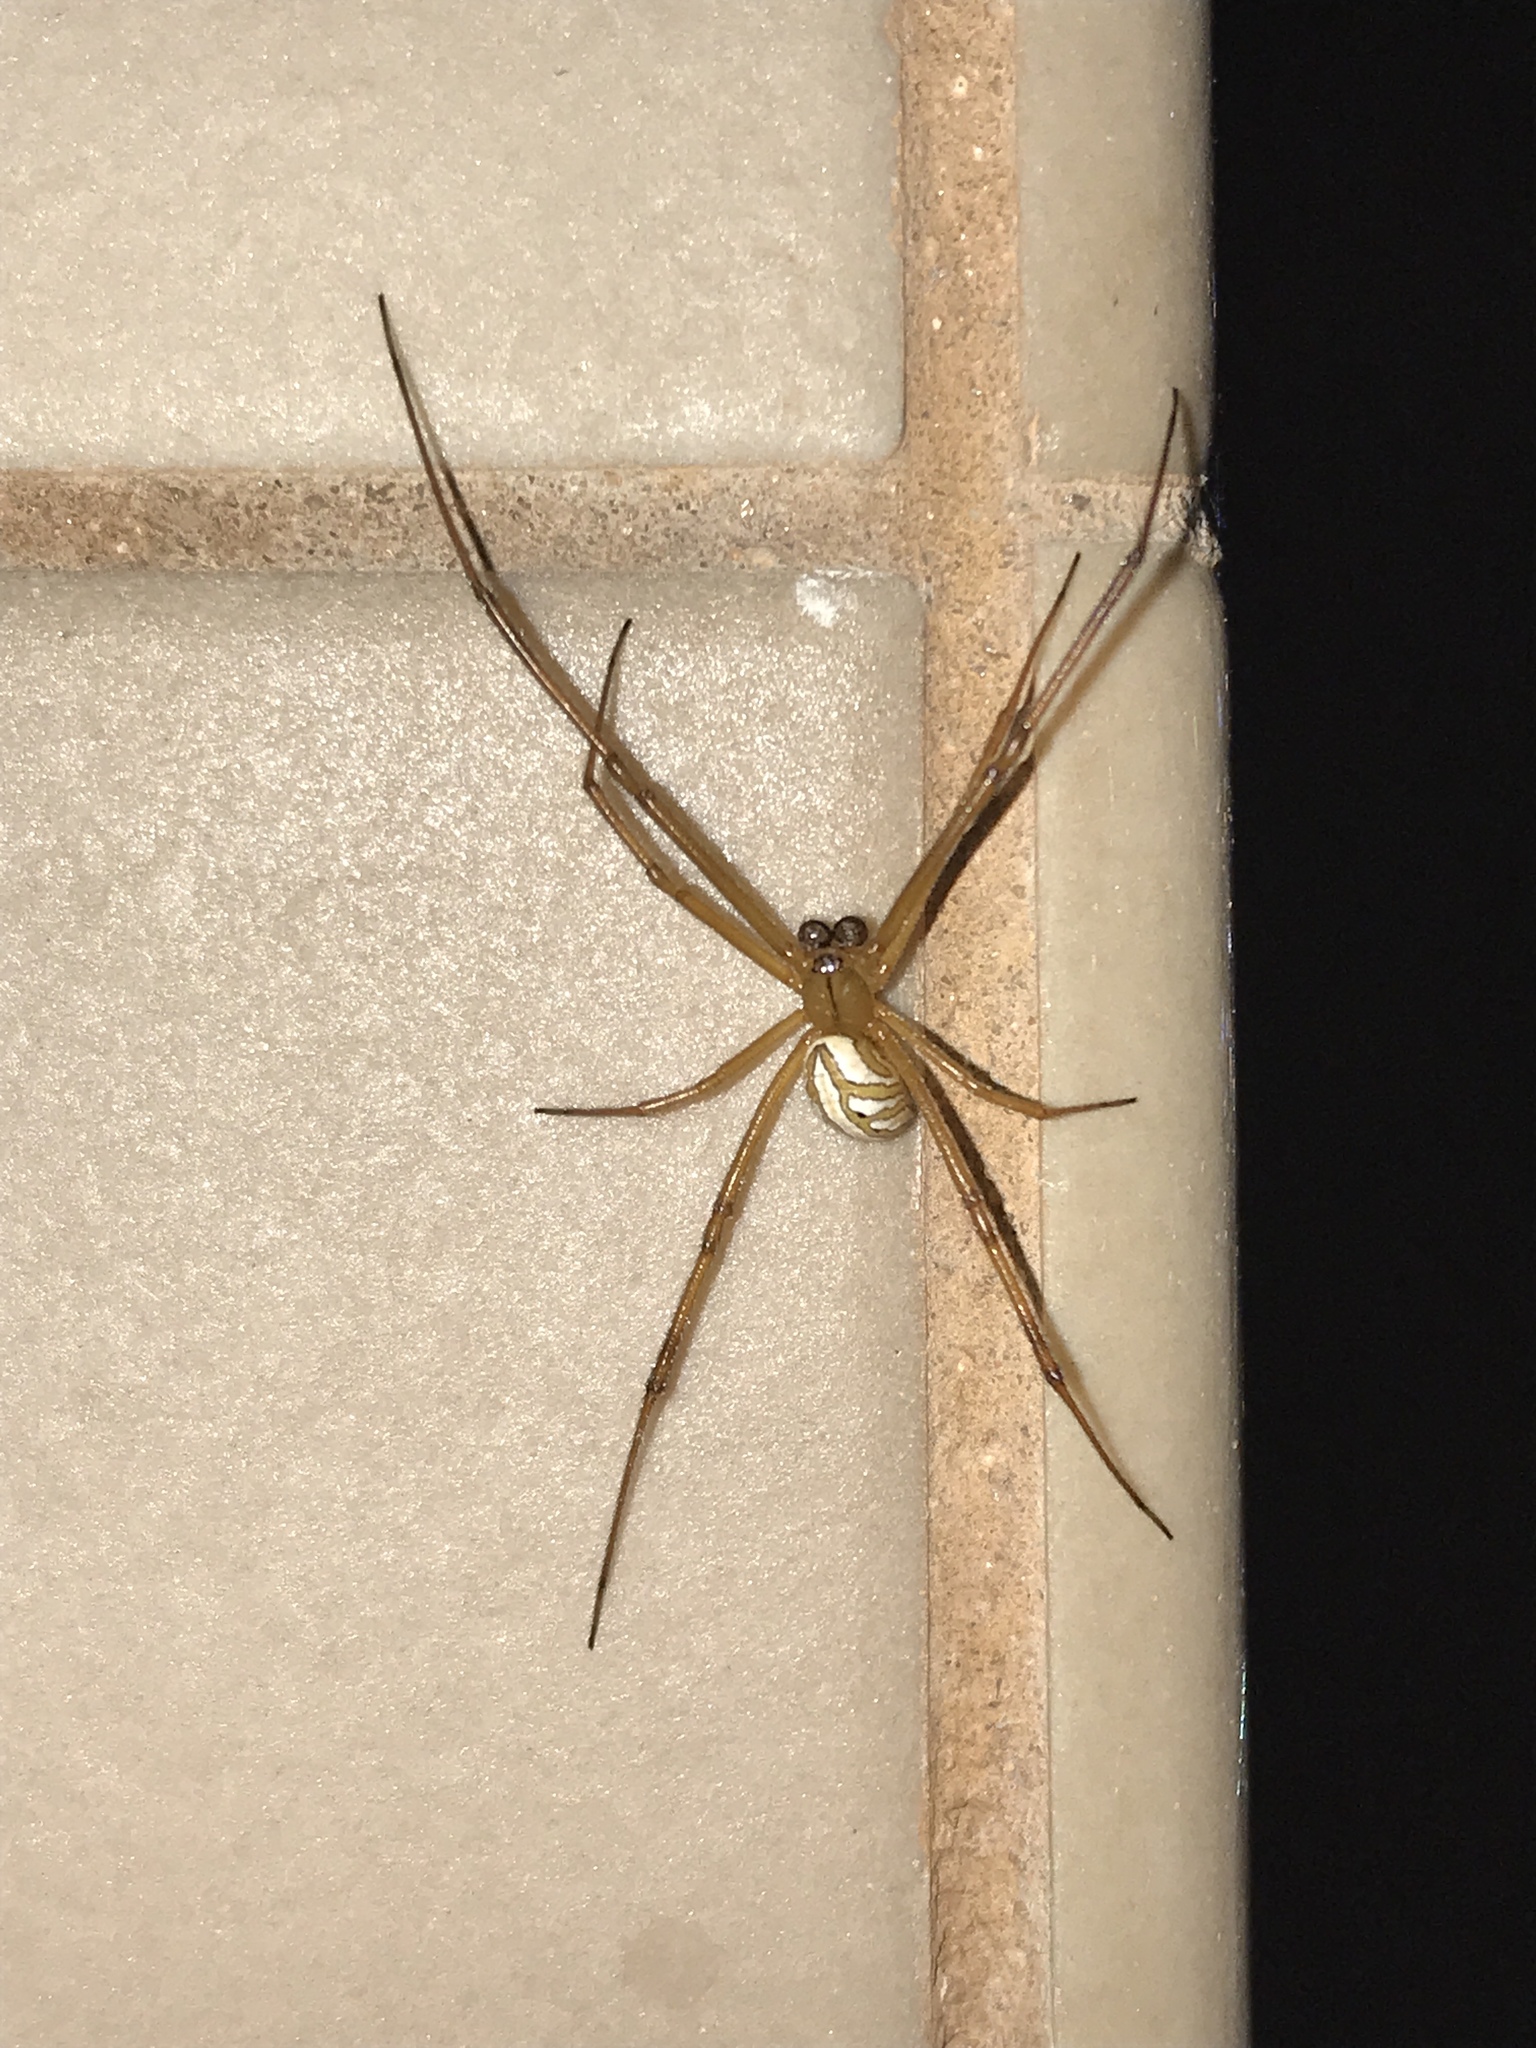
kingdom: Animalia
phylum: Arthropoda
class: Arachnida
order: Araneae
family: Theridiidae
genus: Latrodectus
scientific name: Latrodectus hesperus
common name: Western black widow
